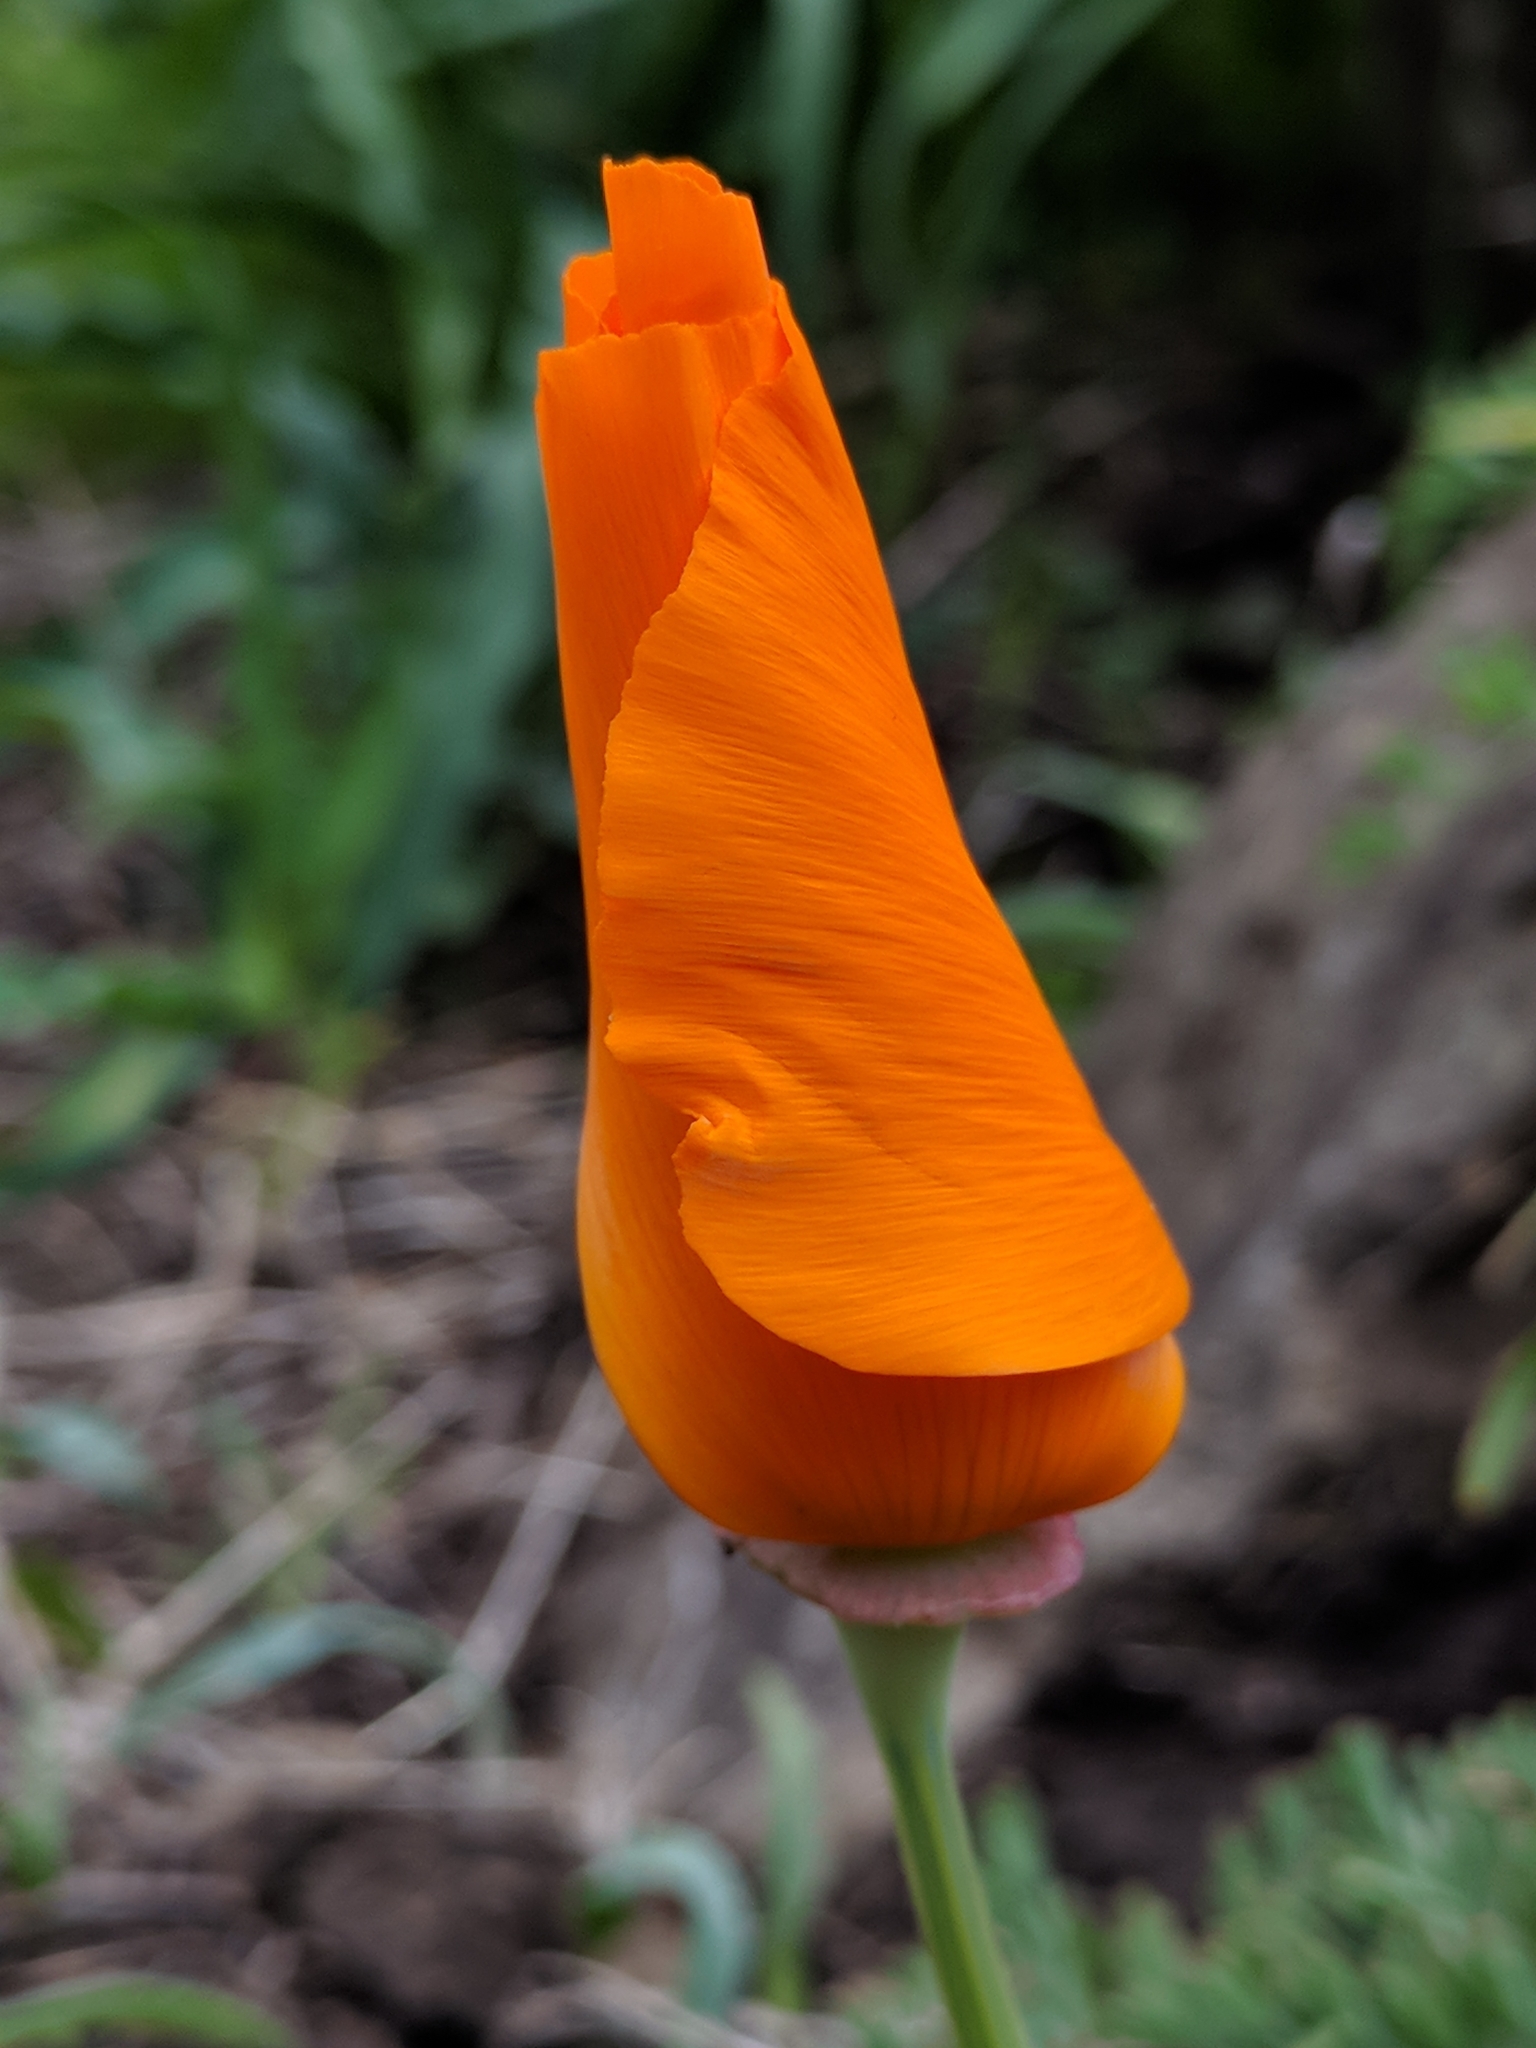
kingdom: Plantae
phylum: Tracheophyta
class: Magnoliopsida
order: Ranunculales
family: Papaveraceae
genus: Eschscholzia
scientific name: Eschscholzia californica
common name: California poppy
